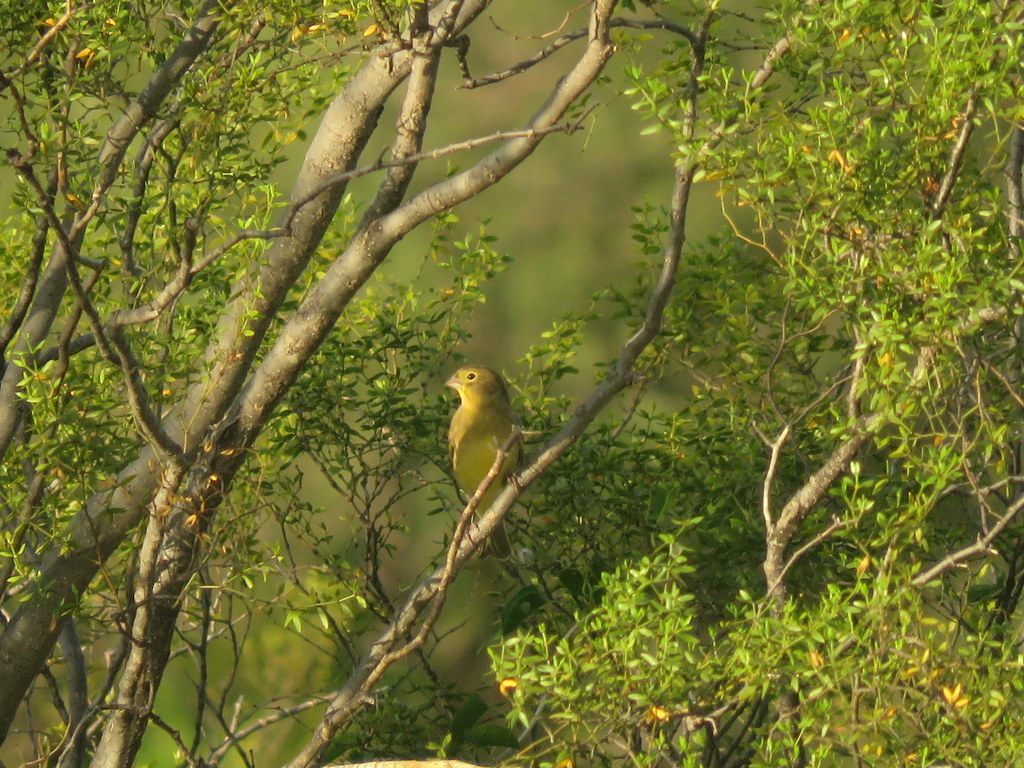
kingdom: Animalia
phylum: Chordata
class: Aves
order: Passeriformes
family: Thraupidae
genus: Sicalis
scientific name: Sicalis luteola
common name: Grassland yellow-finch
